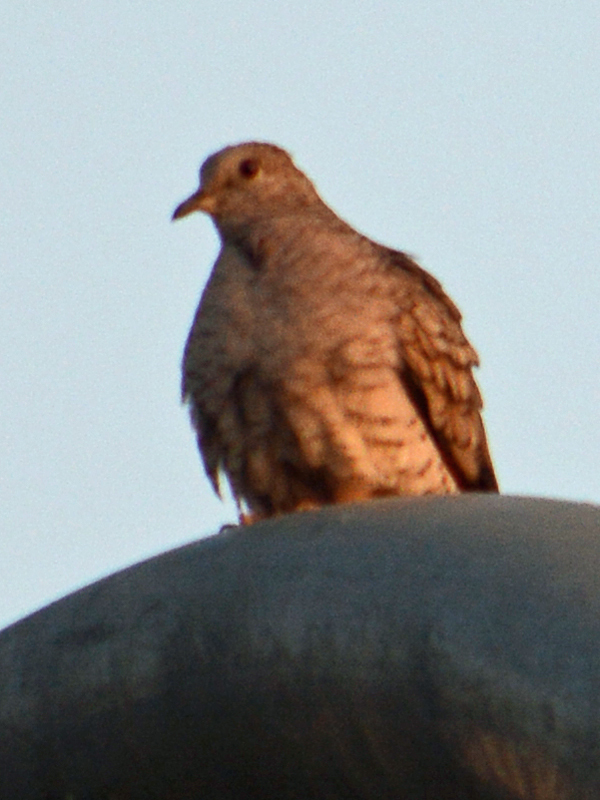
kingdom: Animalia
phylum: Chordata
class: Aves
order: Columbiformes
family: Columbidae
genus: Columbina
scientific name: Columbina inca
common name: Inca dove
